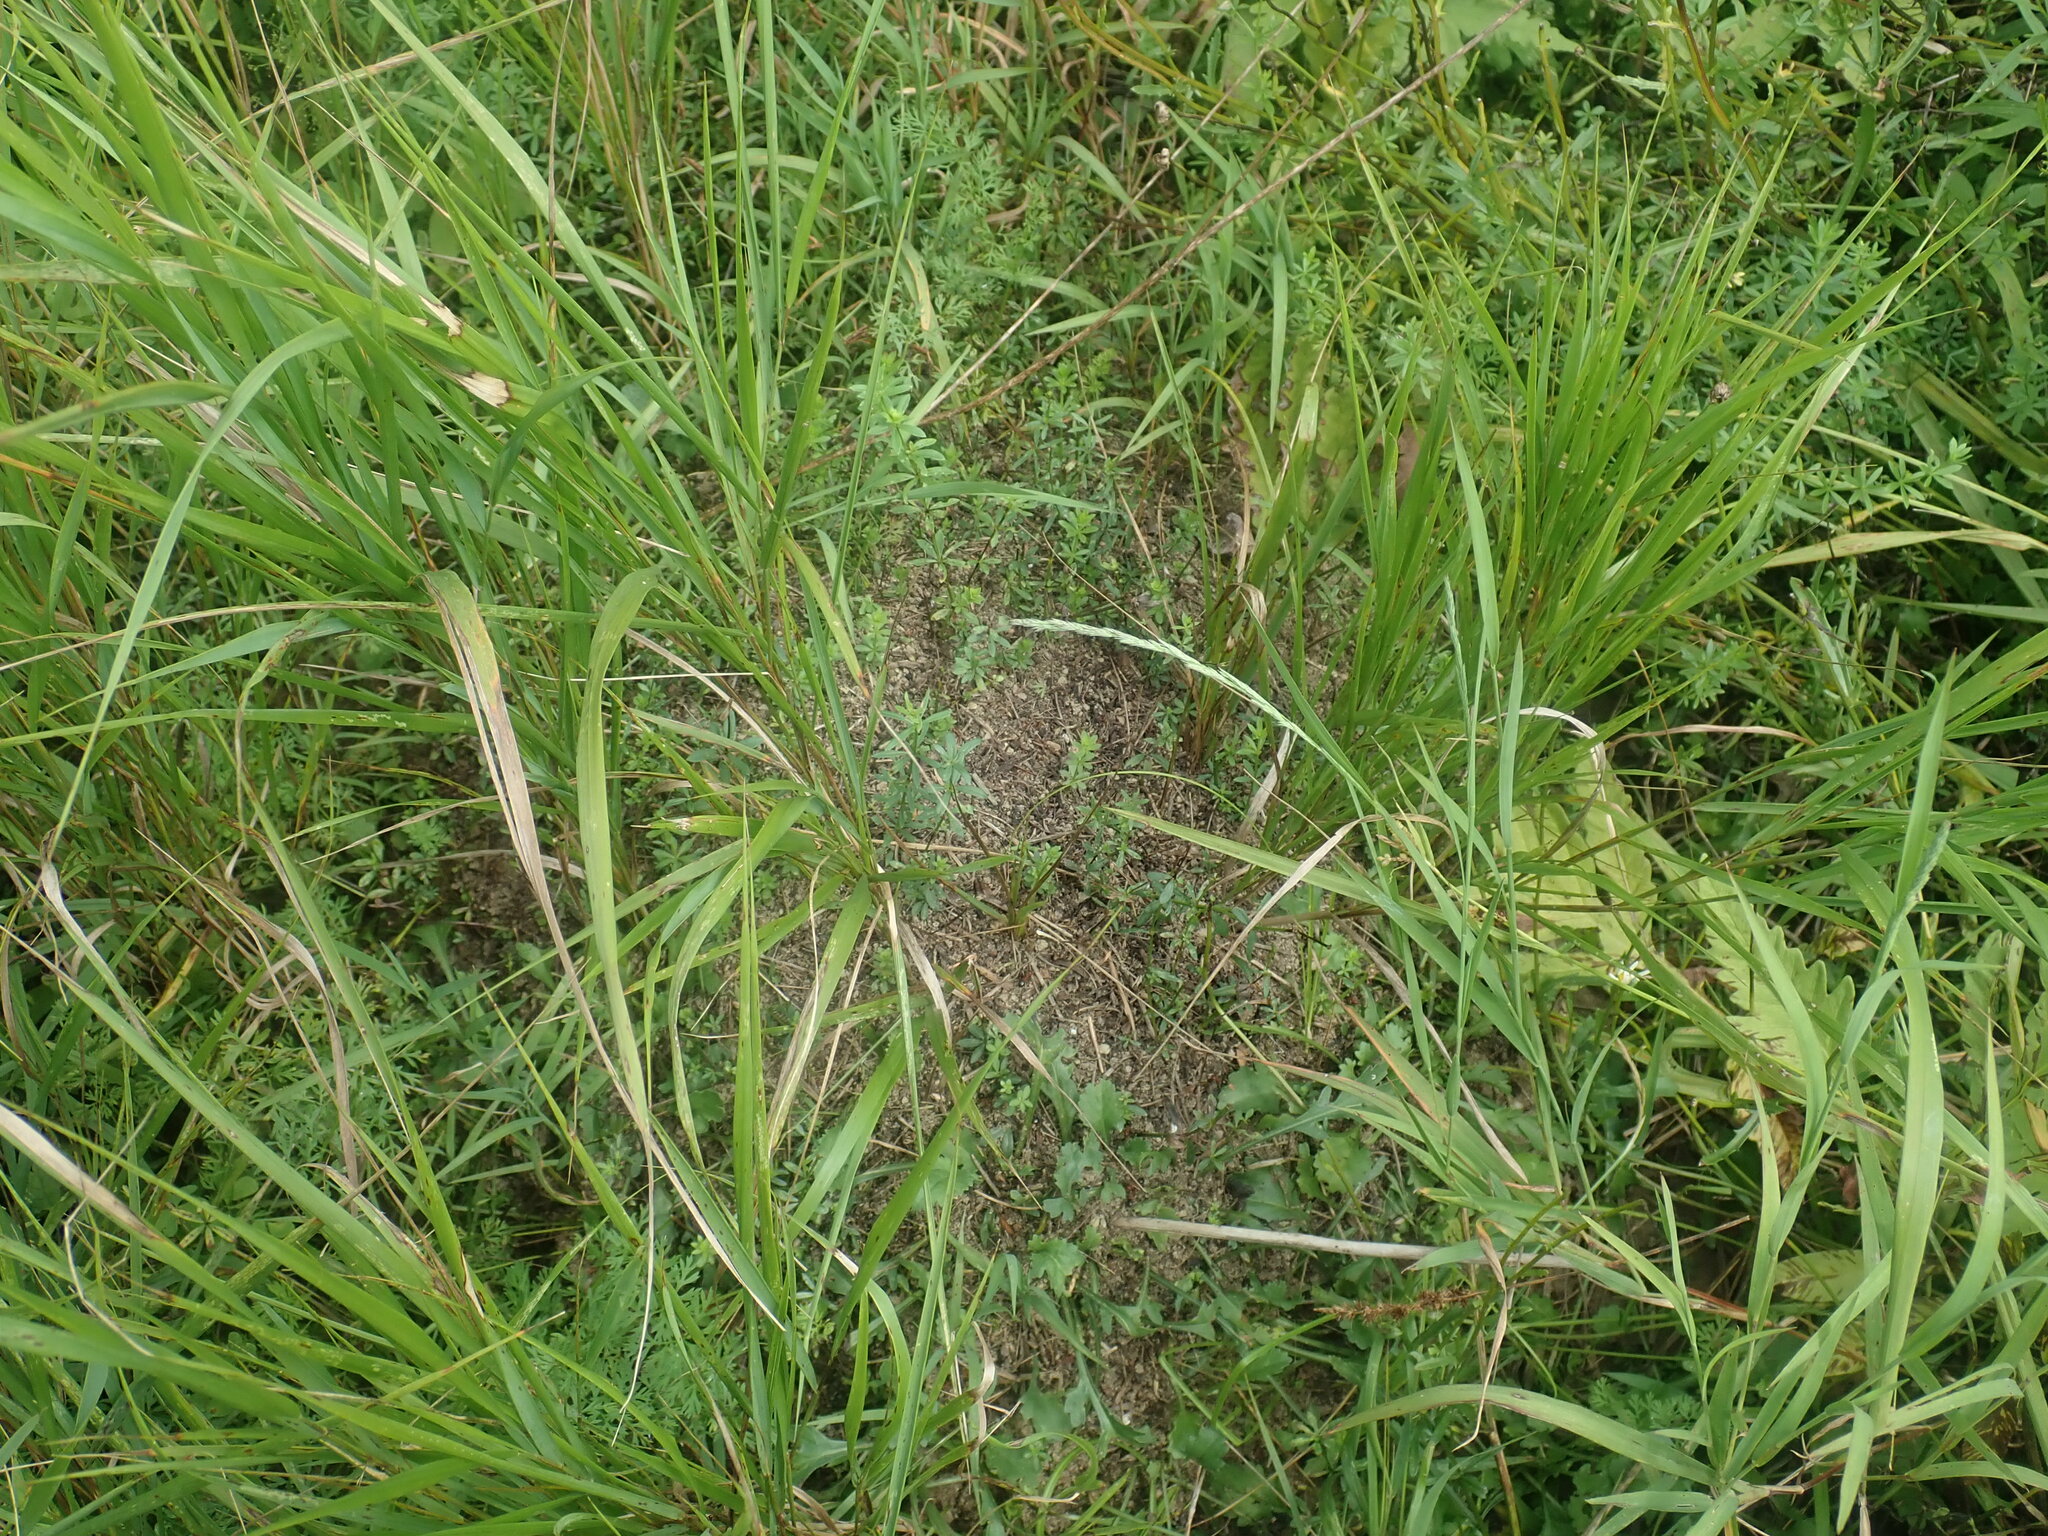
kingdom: Animalia
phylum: Arthropoda
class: Insecta
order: Hymenoptera
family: Formicidae
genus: Formica
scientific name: Formica exsectoides
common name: Allegheny mound ant
